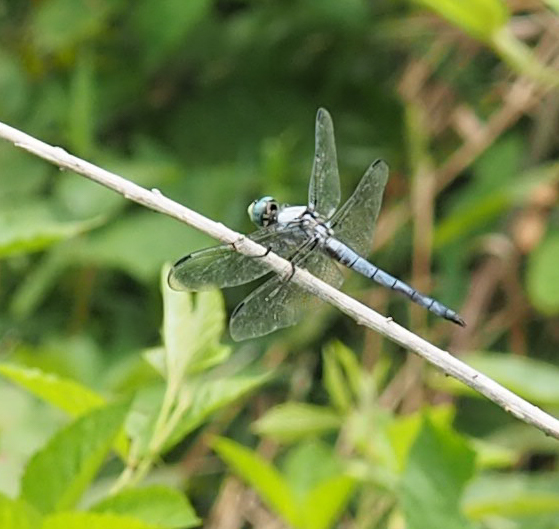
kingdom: Animalia
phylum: Arthropoda
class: Insecta
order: Odonata
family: Libellulidae
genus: Libellula
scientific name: Libellula vibrans
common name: Great blue skimmer
